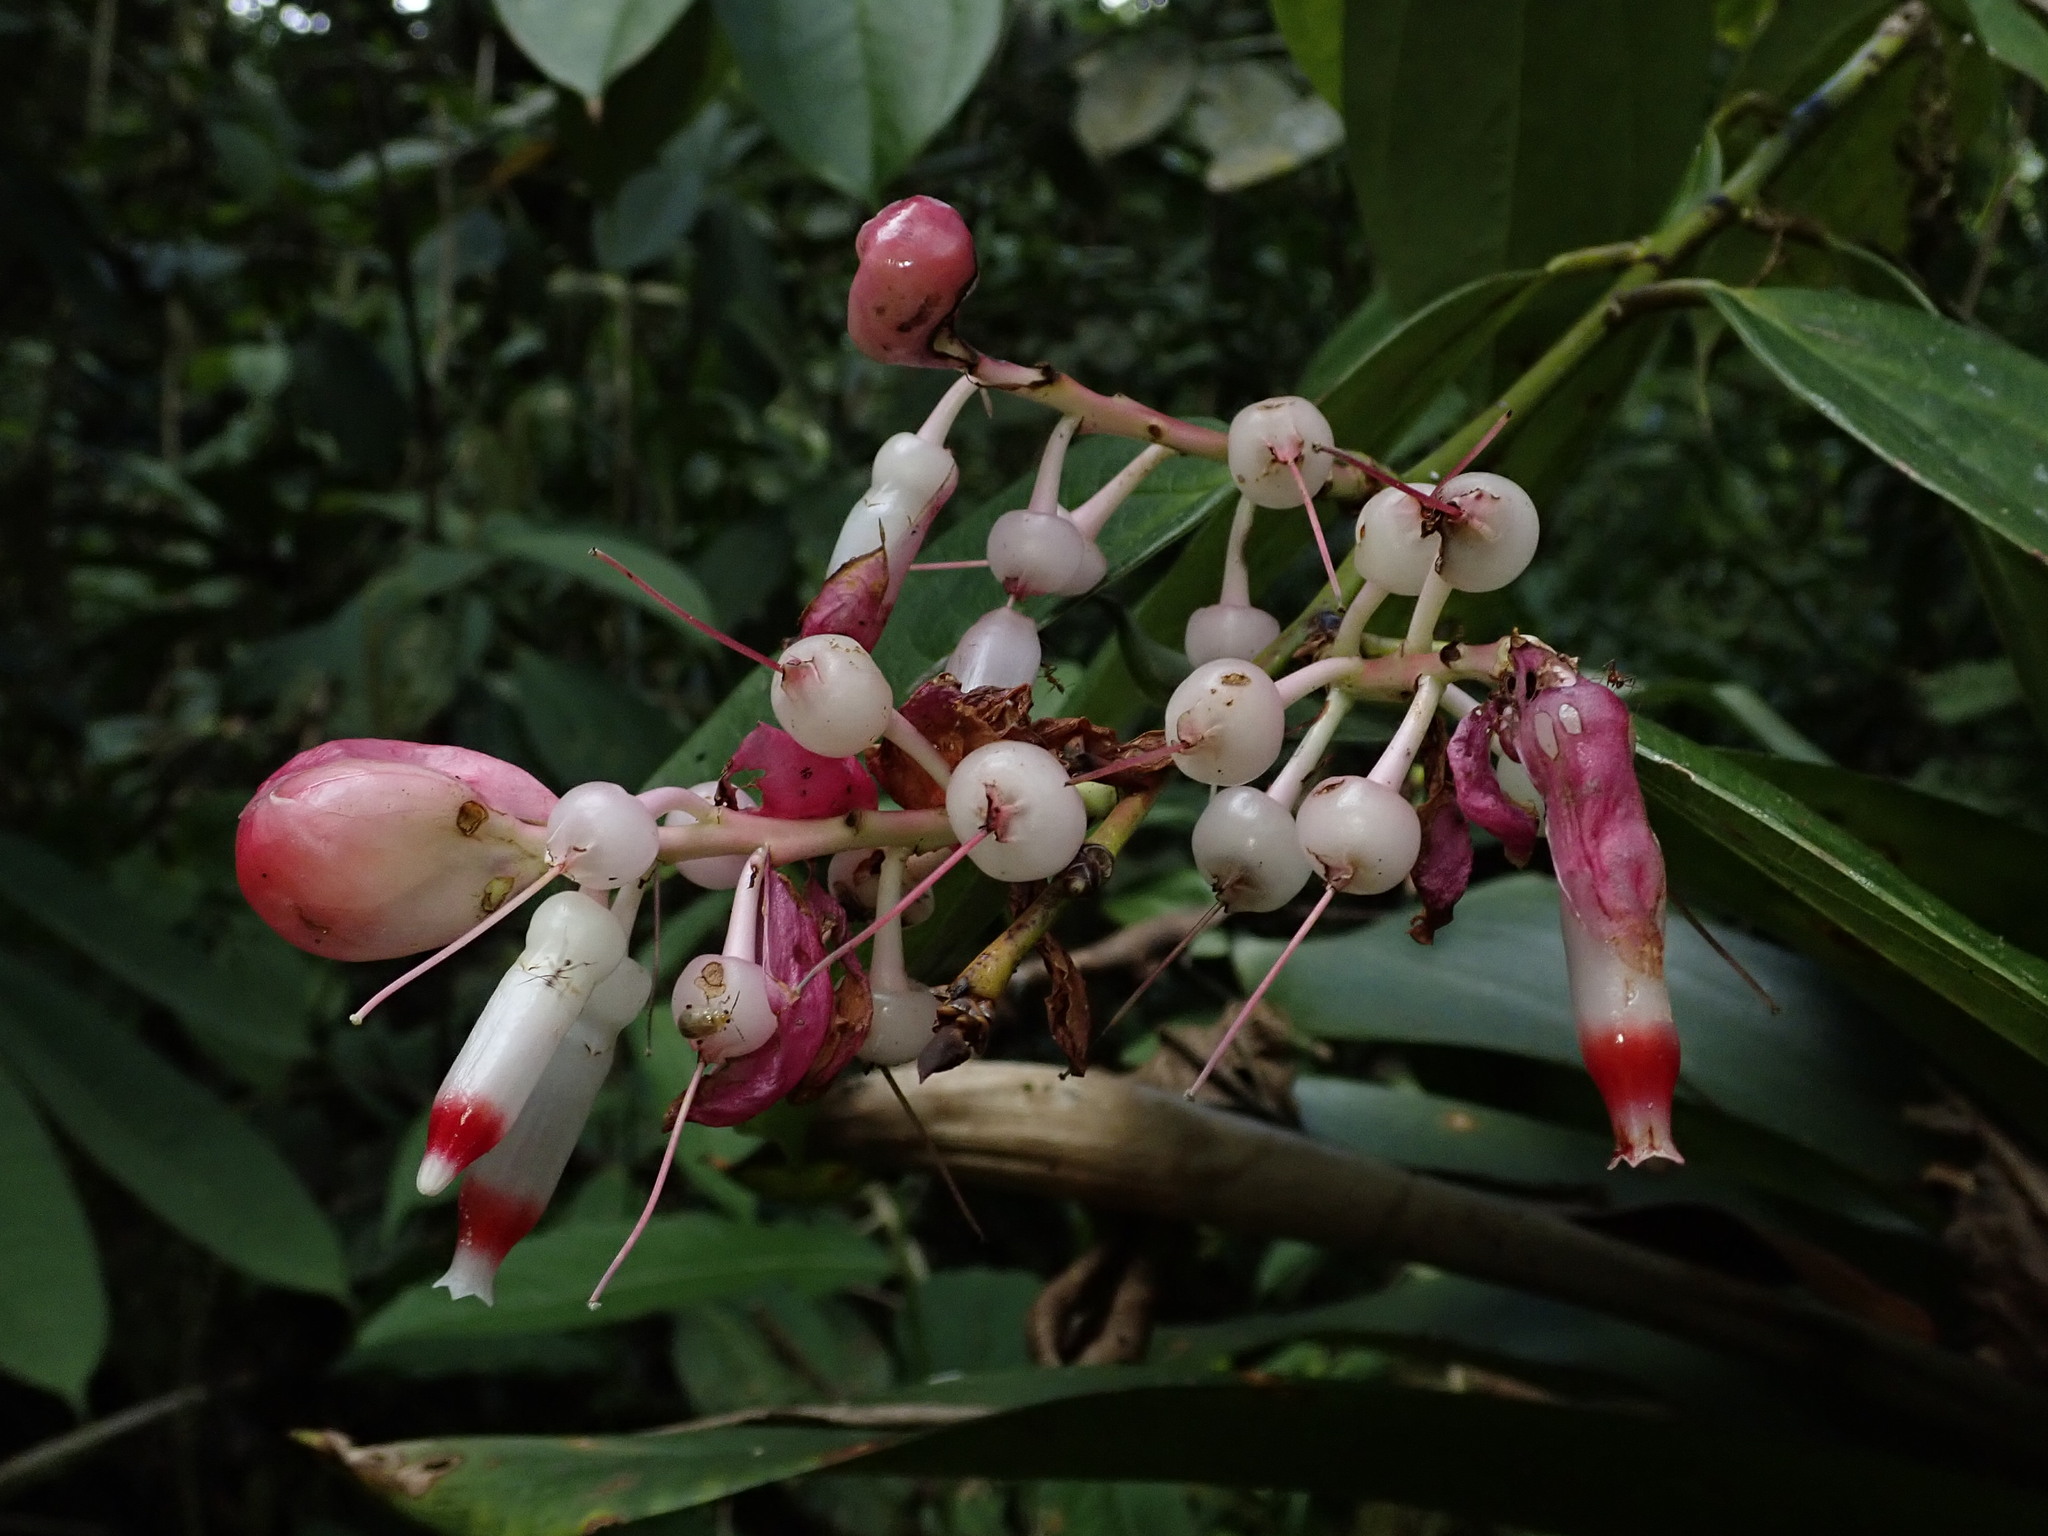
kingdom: Plantae
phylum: Tracheophyta
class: Magnoliopsida
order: Ericales
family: Ericaceae
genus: Cavendishia
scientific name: Cavendishia tarapotana
